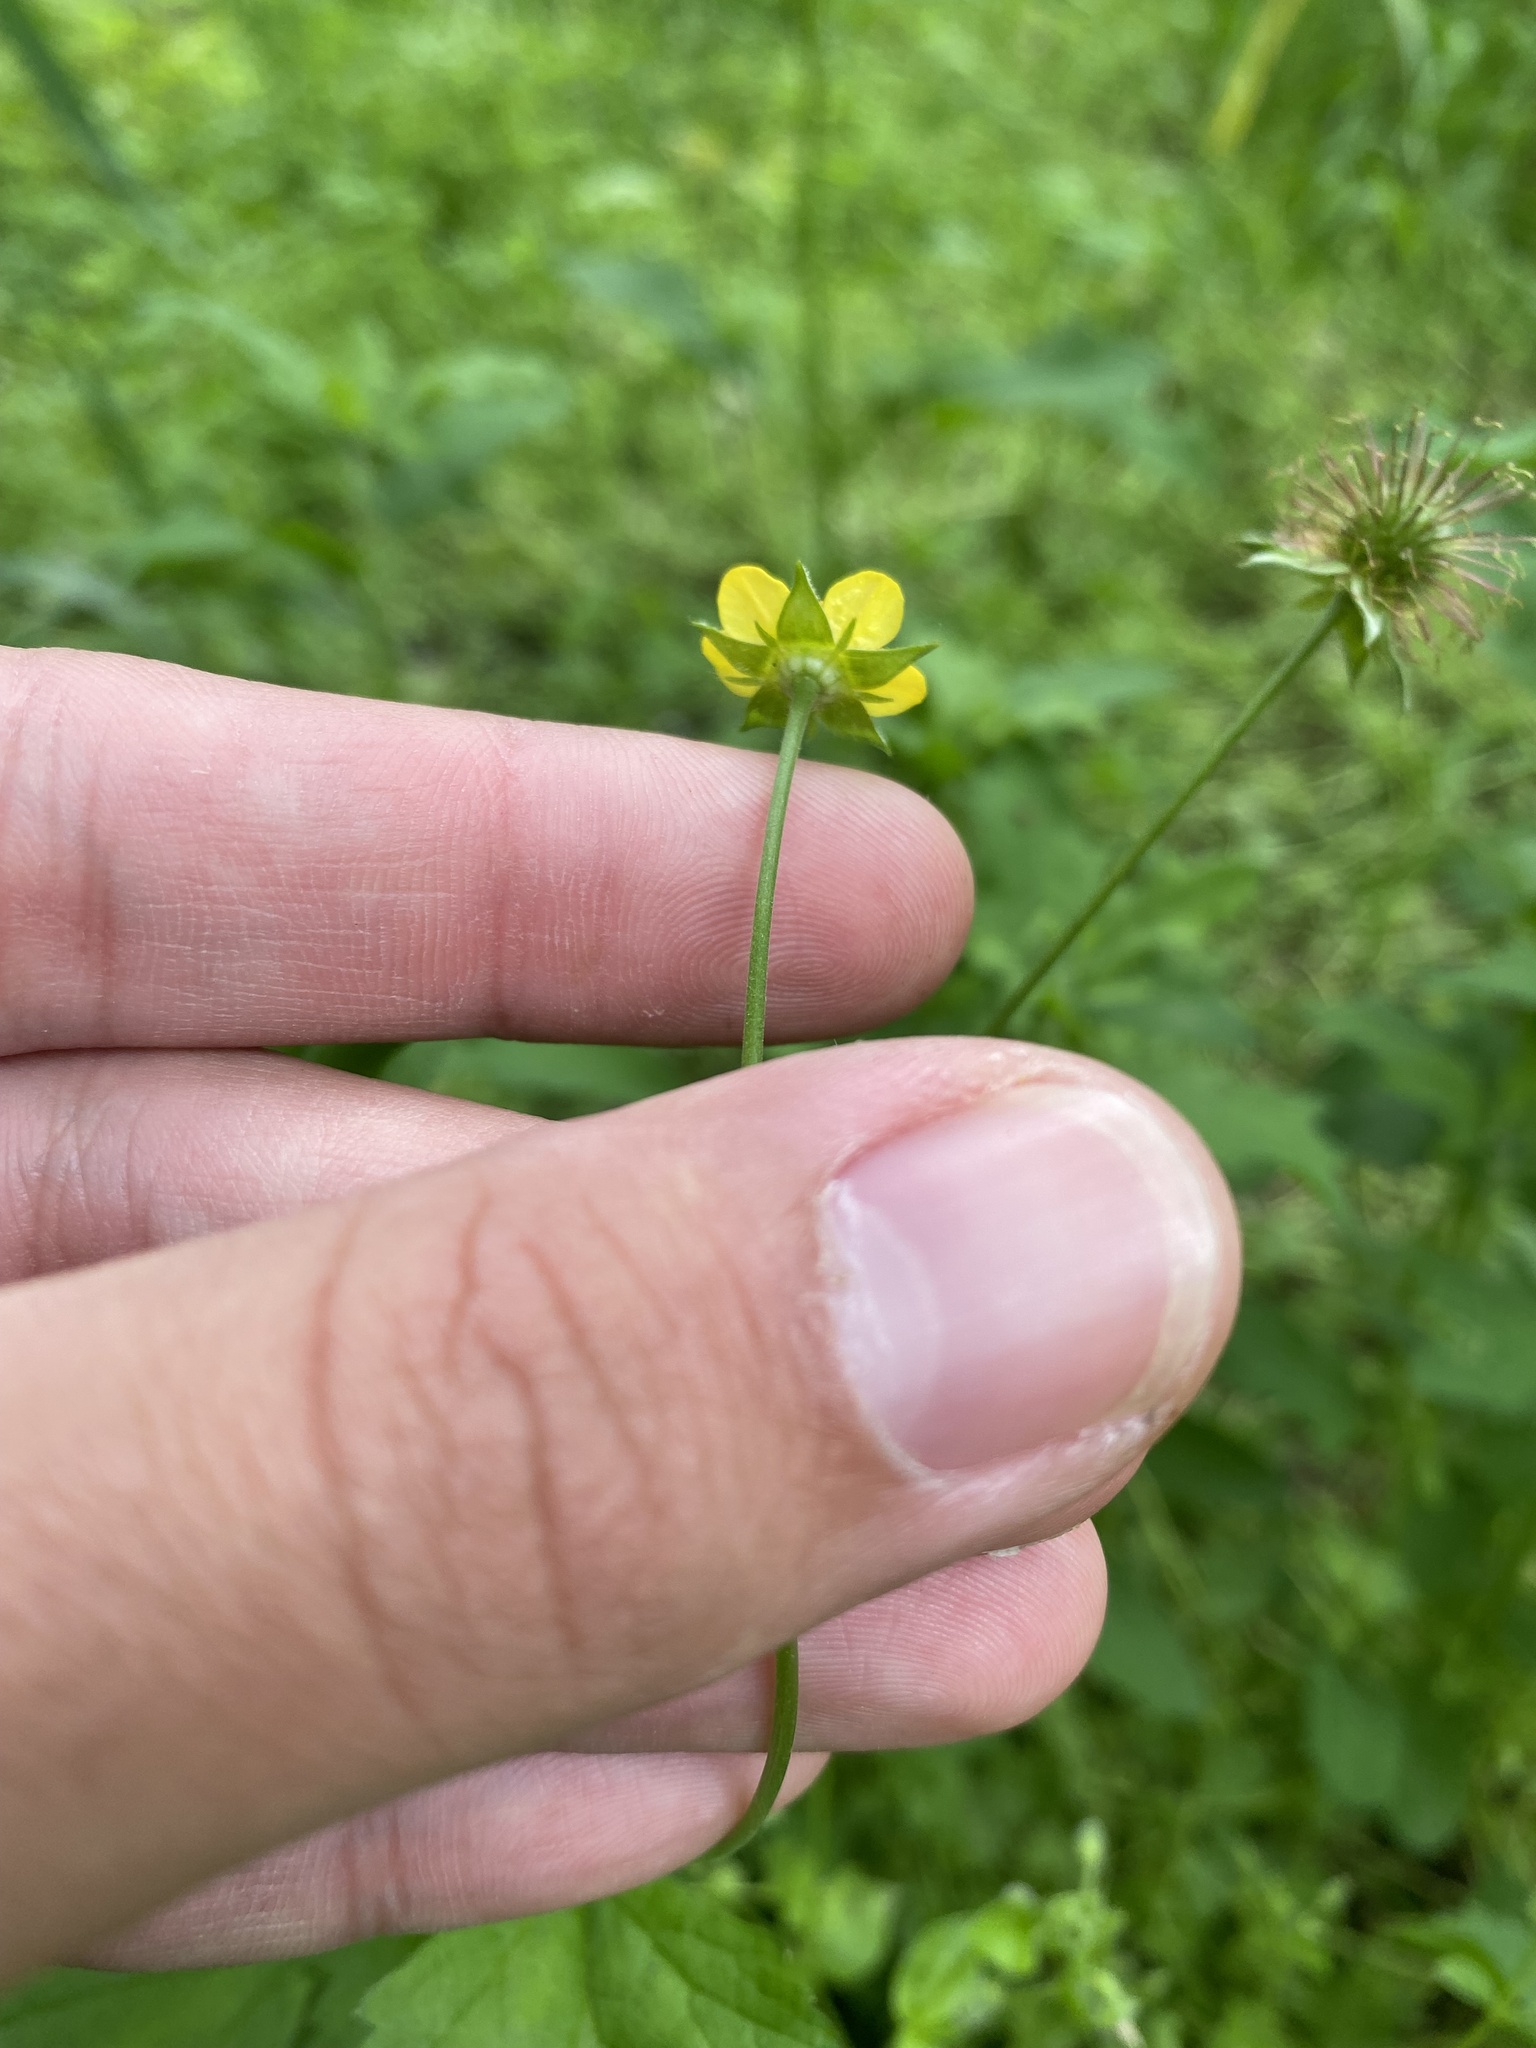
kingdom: Plantae
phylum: Tracheophyta
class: Magnoliopsida
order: Rosales
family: Rosaceae
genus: Geum
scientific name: Geum urbanum
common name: Wood avens
